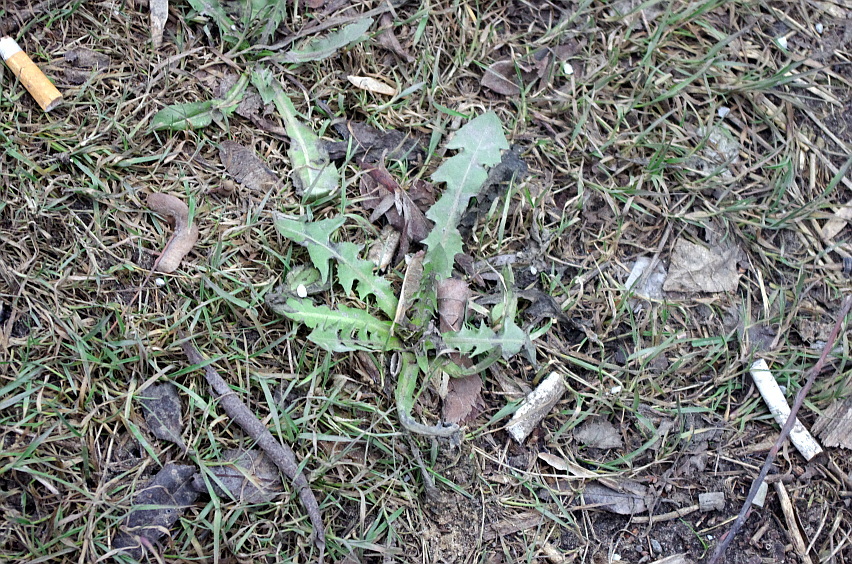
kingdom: Plantae
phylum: Tracheophyta
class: Magnoliopsida
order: Asterales
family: Asteraceae
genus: Taraxacum
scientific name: Taraxacum officinale
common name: Common dandelion
